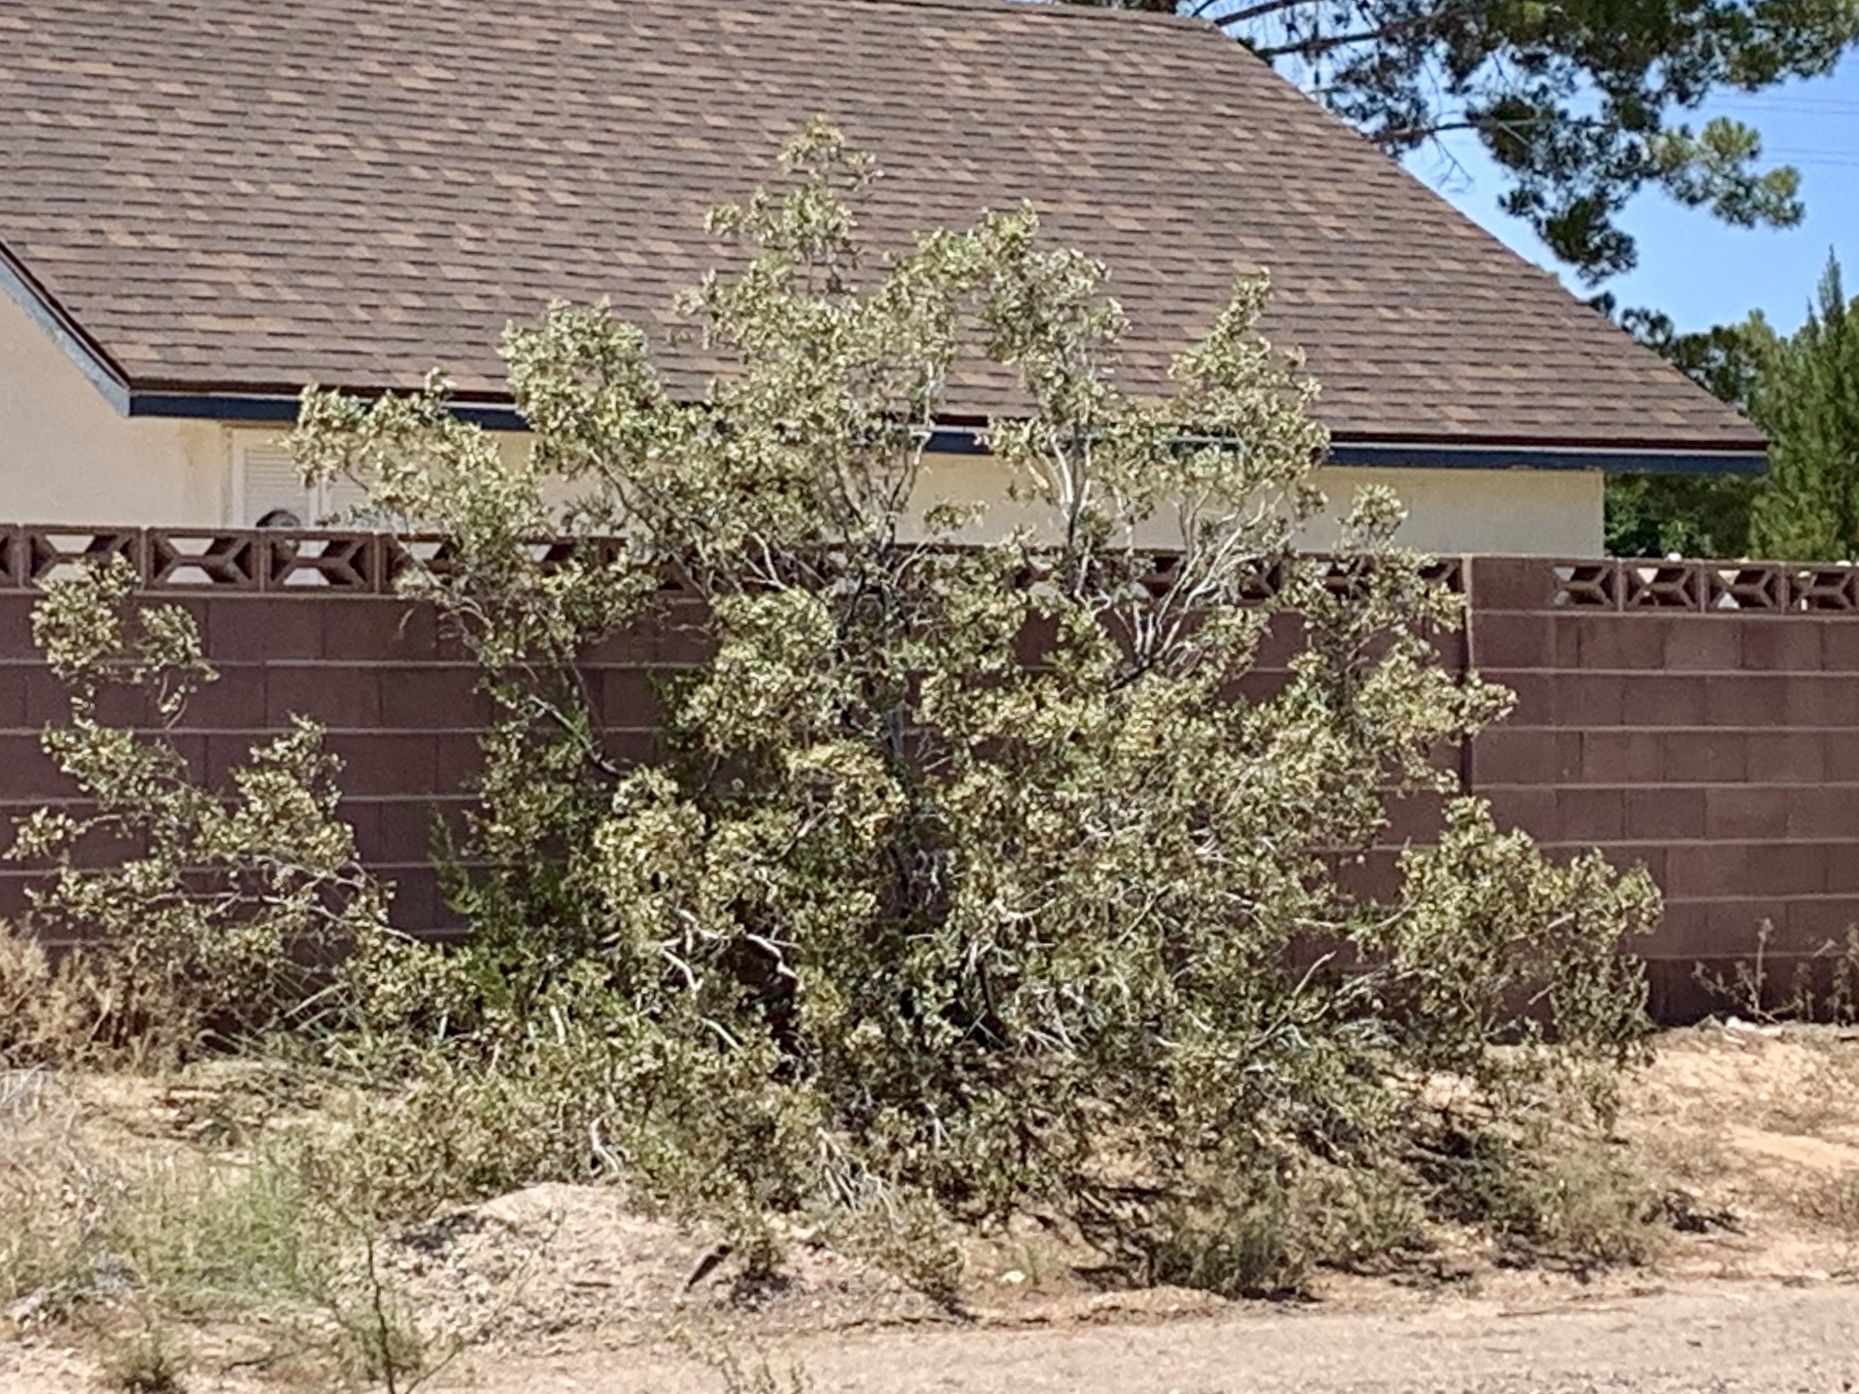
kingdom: Plantae
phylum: Tracheophyta
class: Magnoliopsida
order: Zygophyllales
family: Zygophyllaceae
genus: Larrea
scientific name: Larrea tridentata
